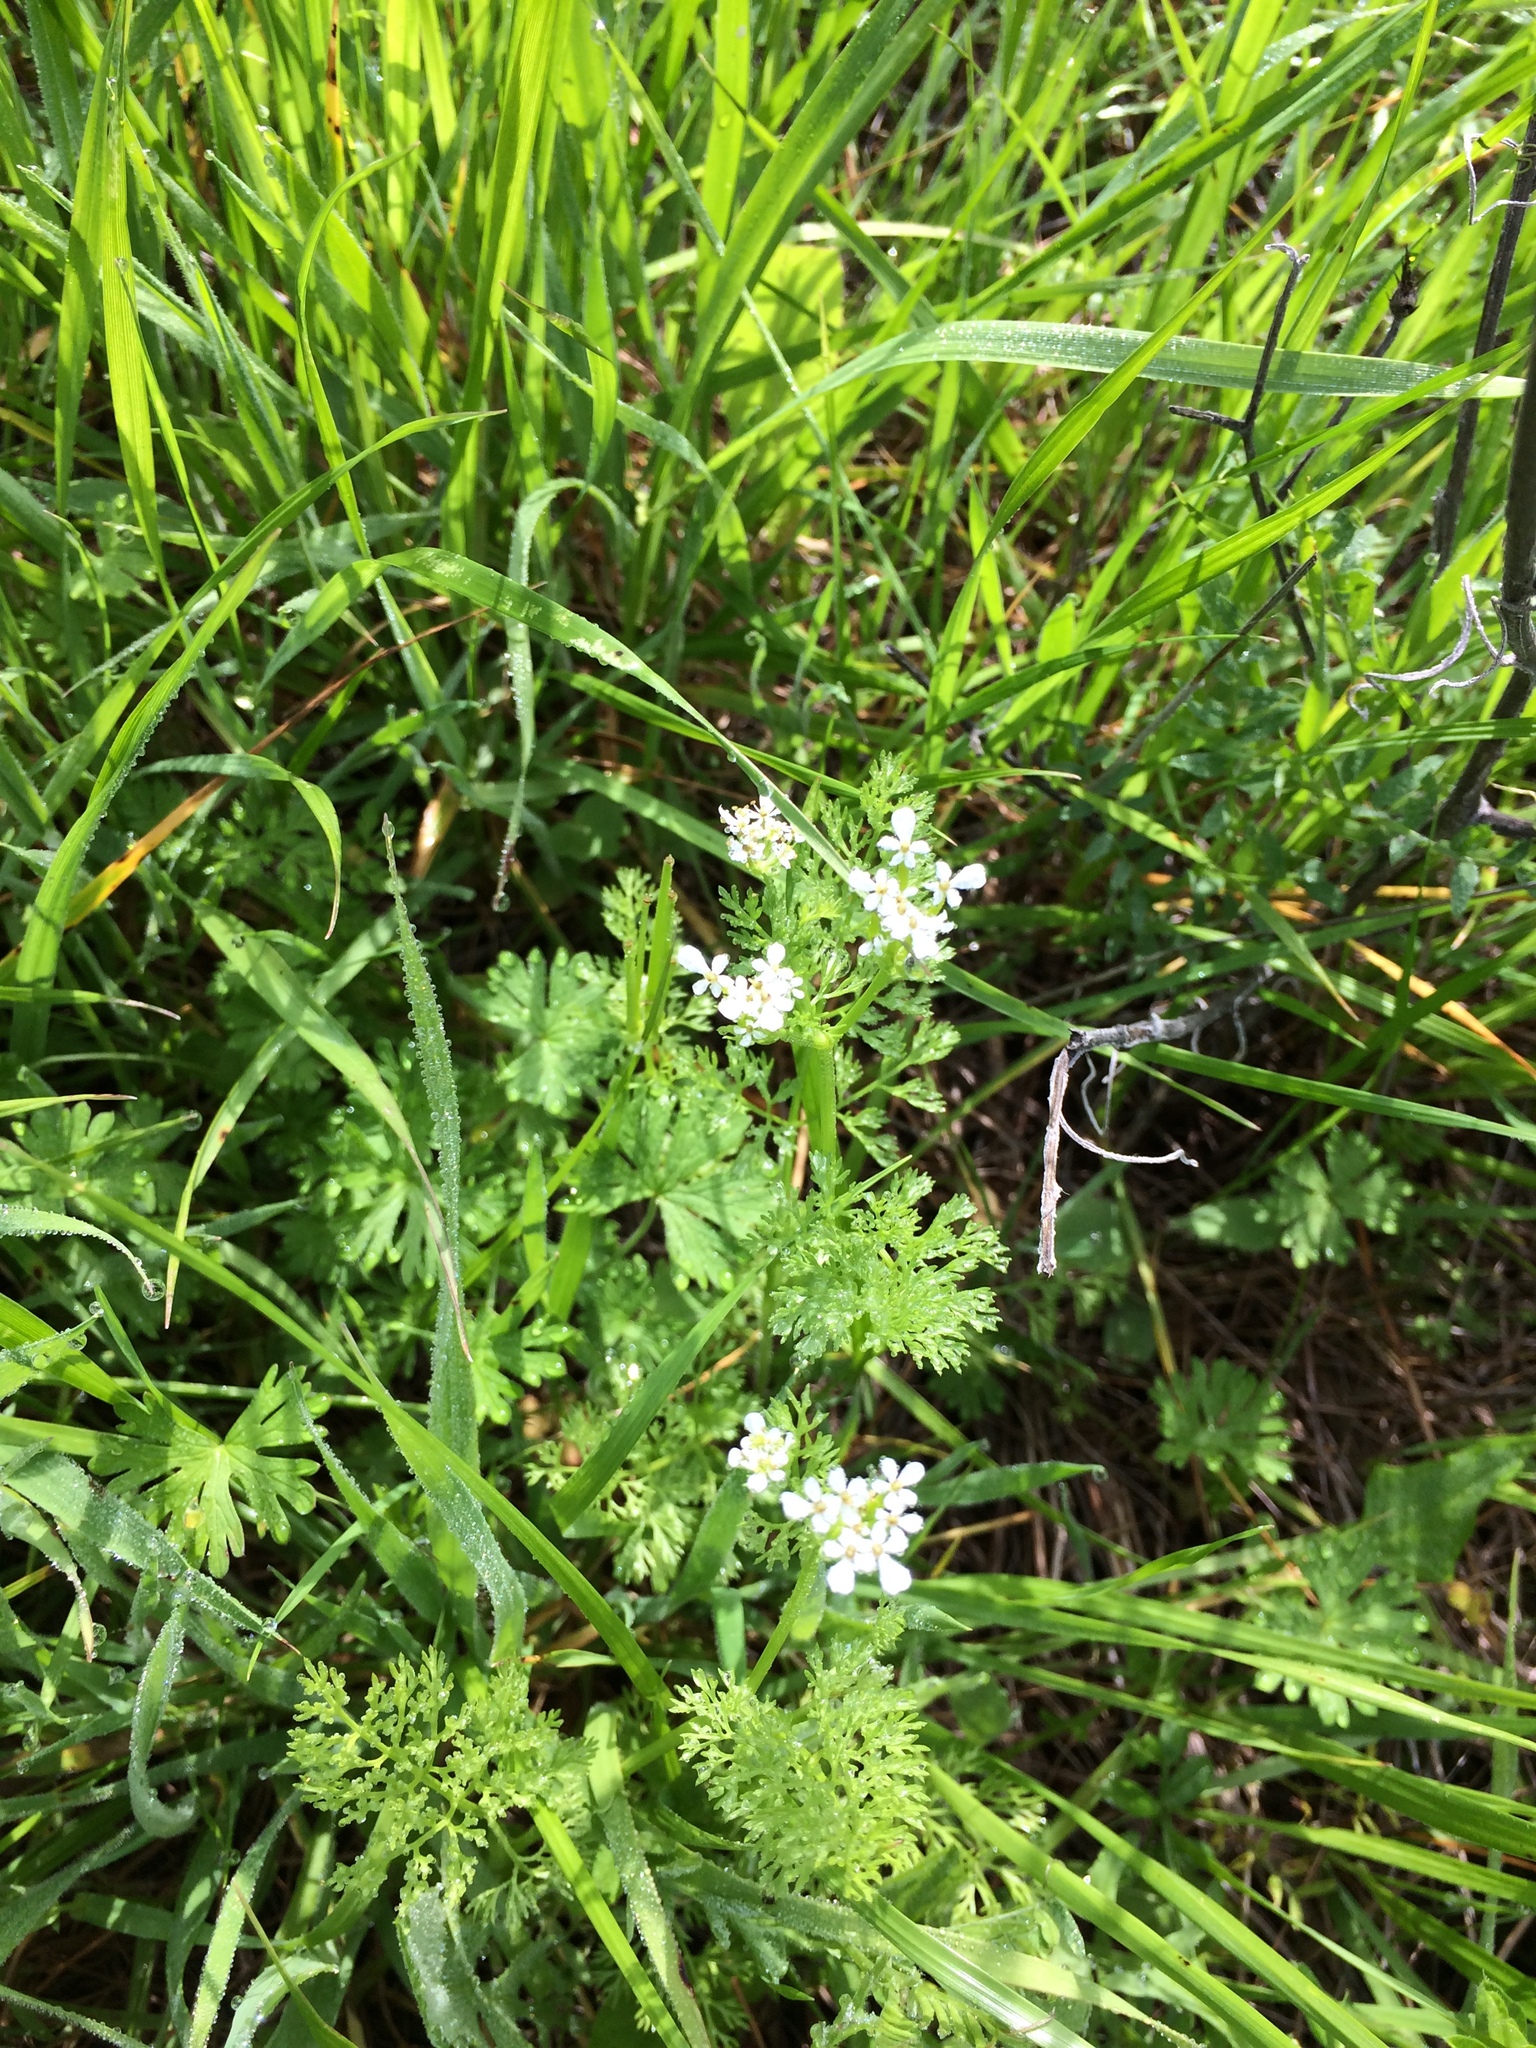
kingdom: Plantae
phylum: Tracheophyta
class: Magnoliopsida
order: Apiales
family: Apiaceae
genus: Scandix
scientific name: Scandix pecten-veneris
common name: Shepherd's-needle
